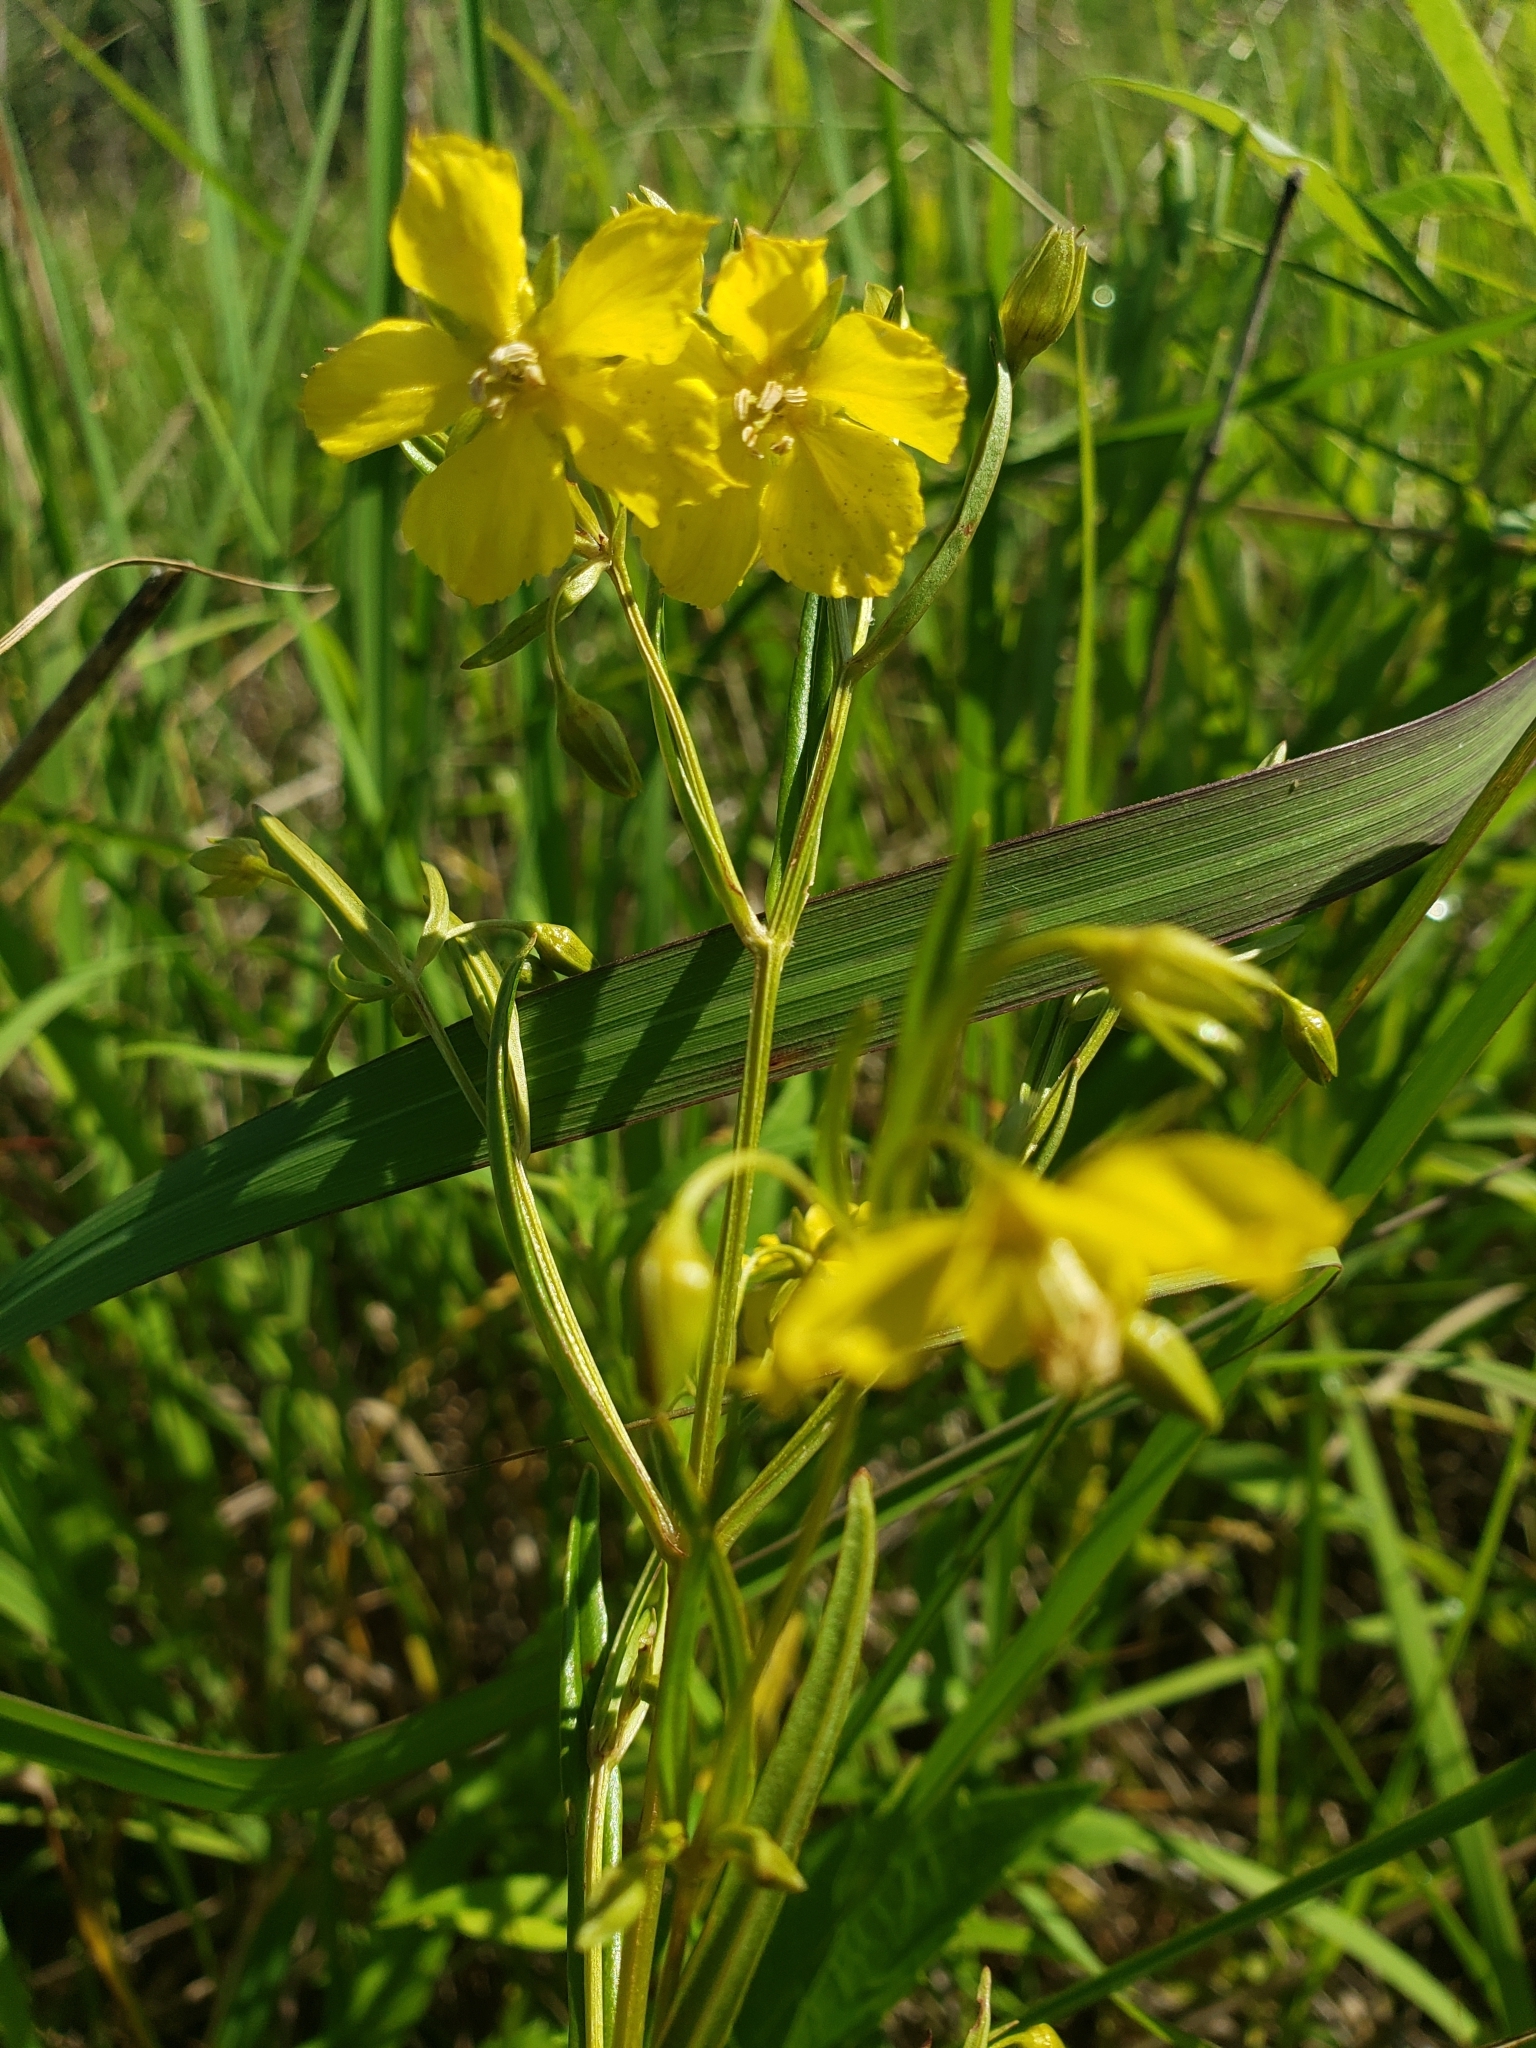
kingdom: Plantae
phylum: Tracheophyta
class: Magnoliopsida
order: Ericales
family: Primulaceae
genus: Lysimachia
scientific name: Lysimachia quadriflora
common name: Four-flowered loosestrife
